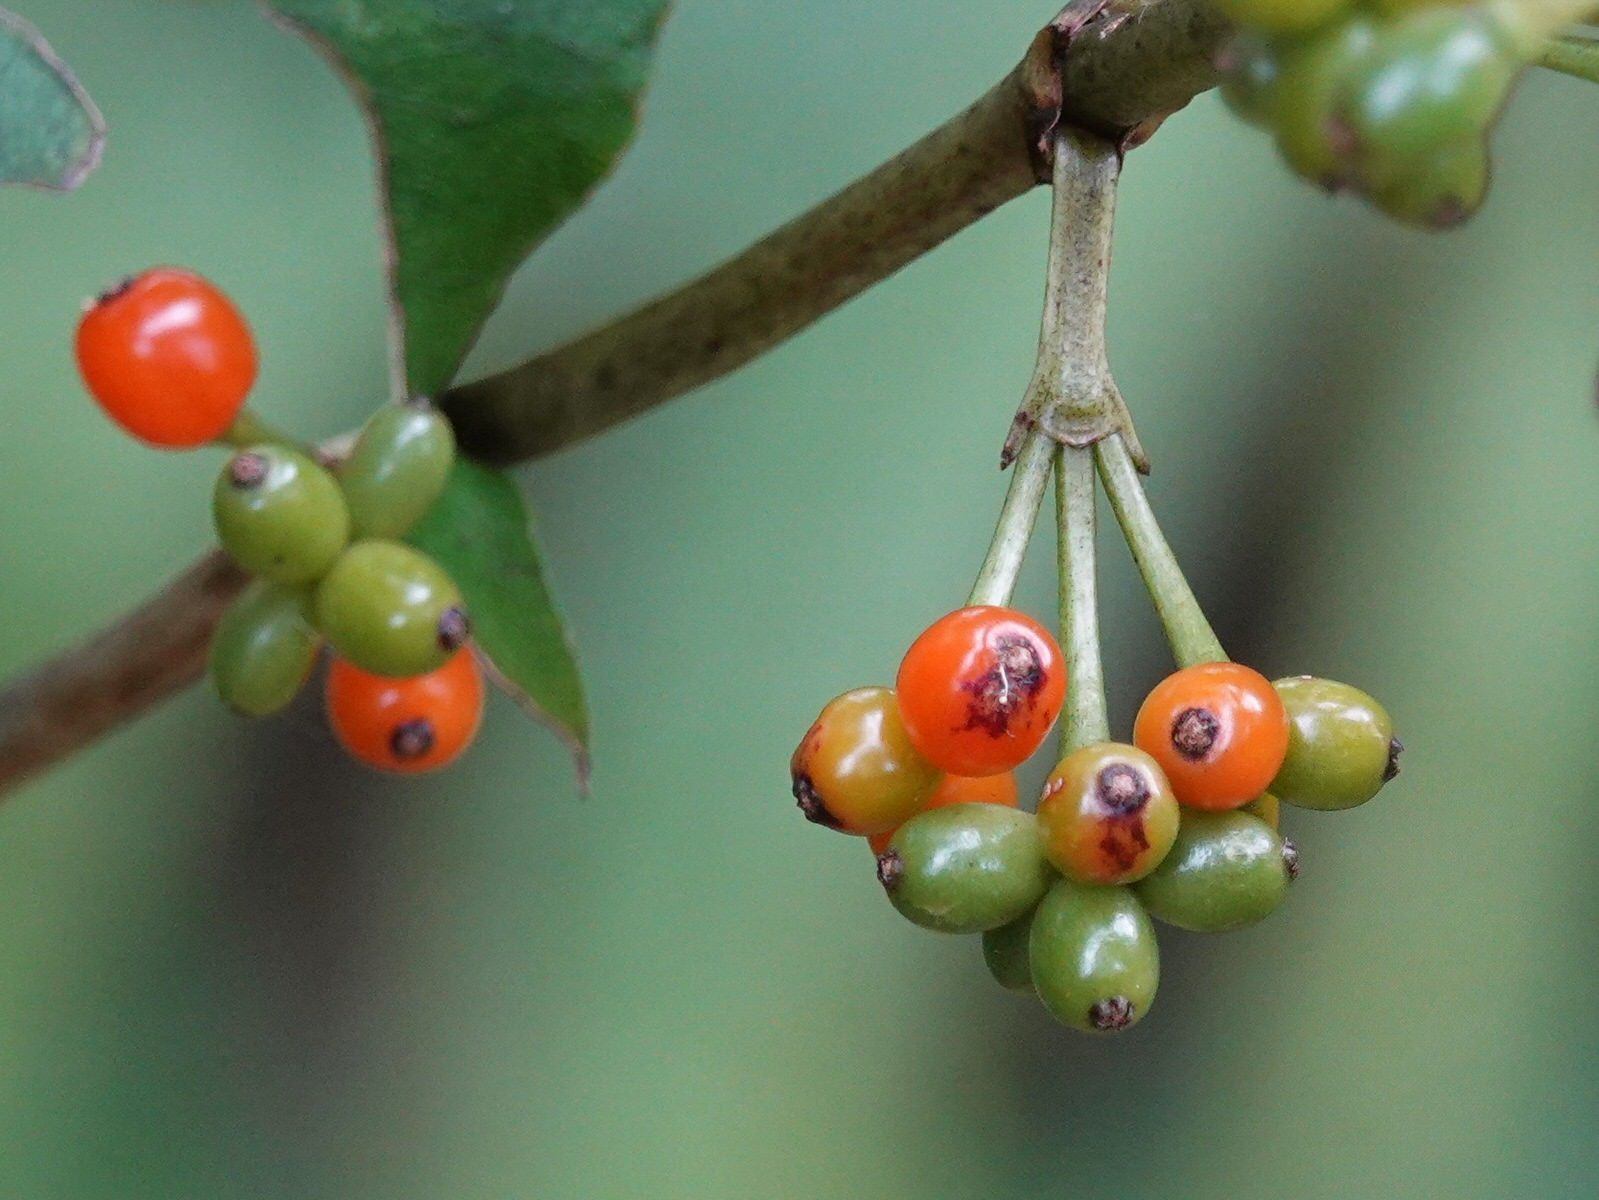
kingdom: Plantae
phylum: Tracheophyta
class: Magnoliopsida
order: Gentianales
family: Rubiaceae
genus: Coprosma
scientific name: Coprosma autumnalis
